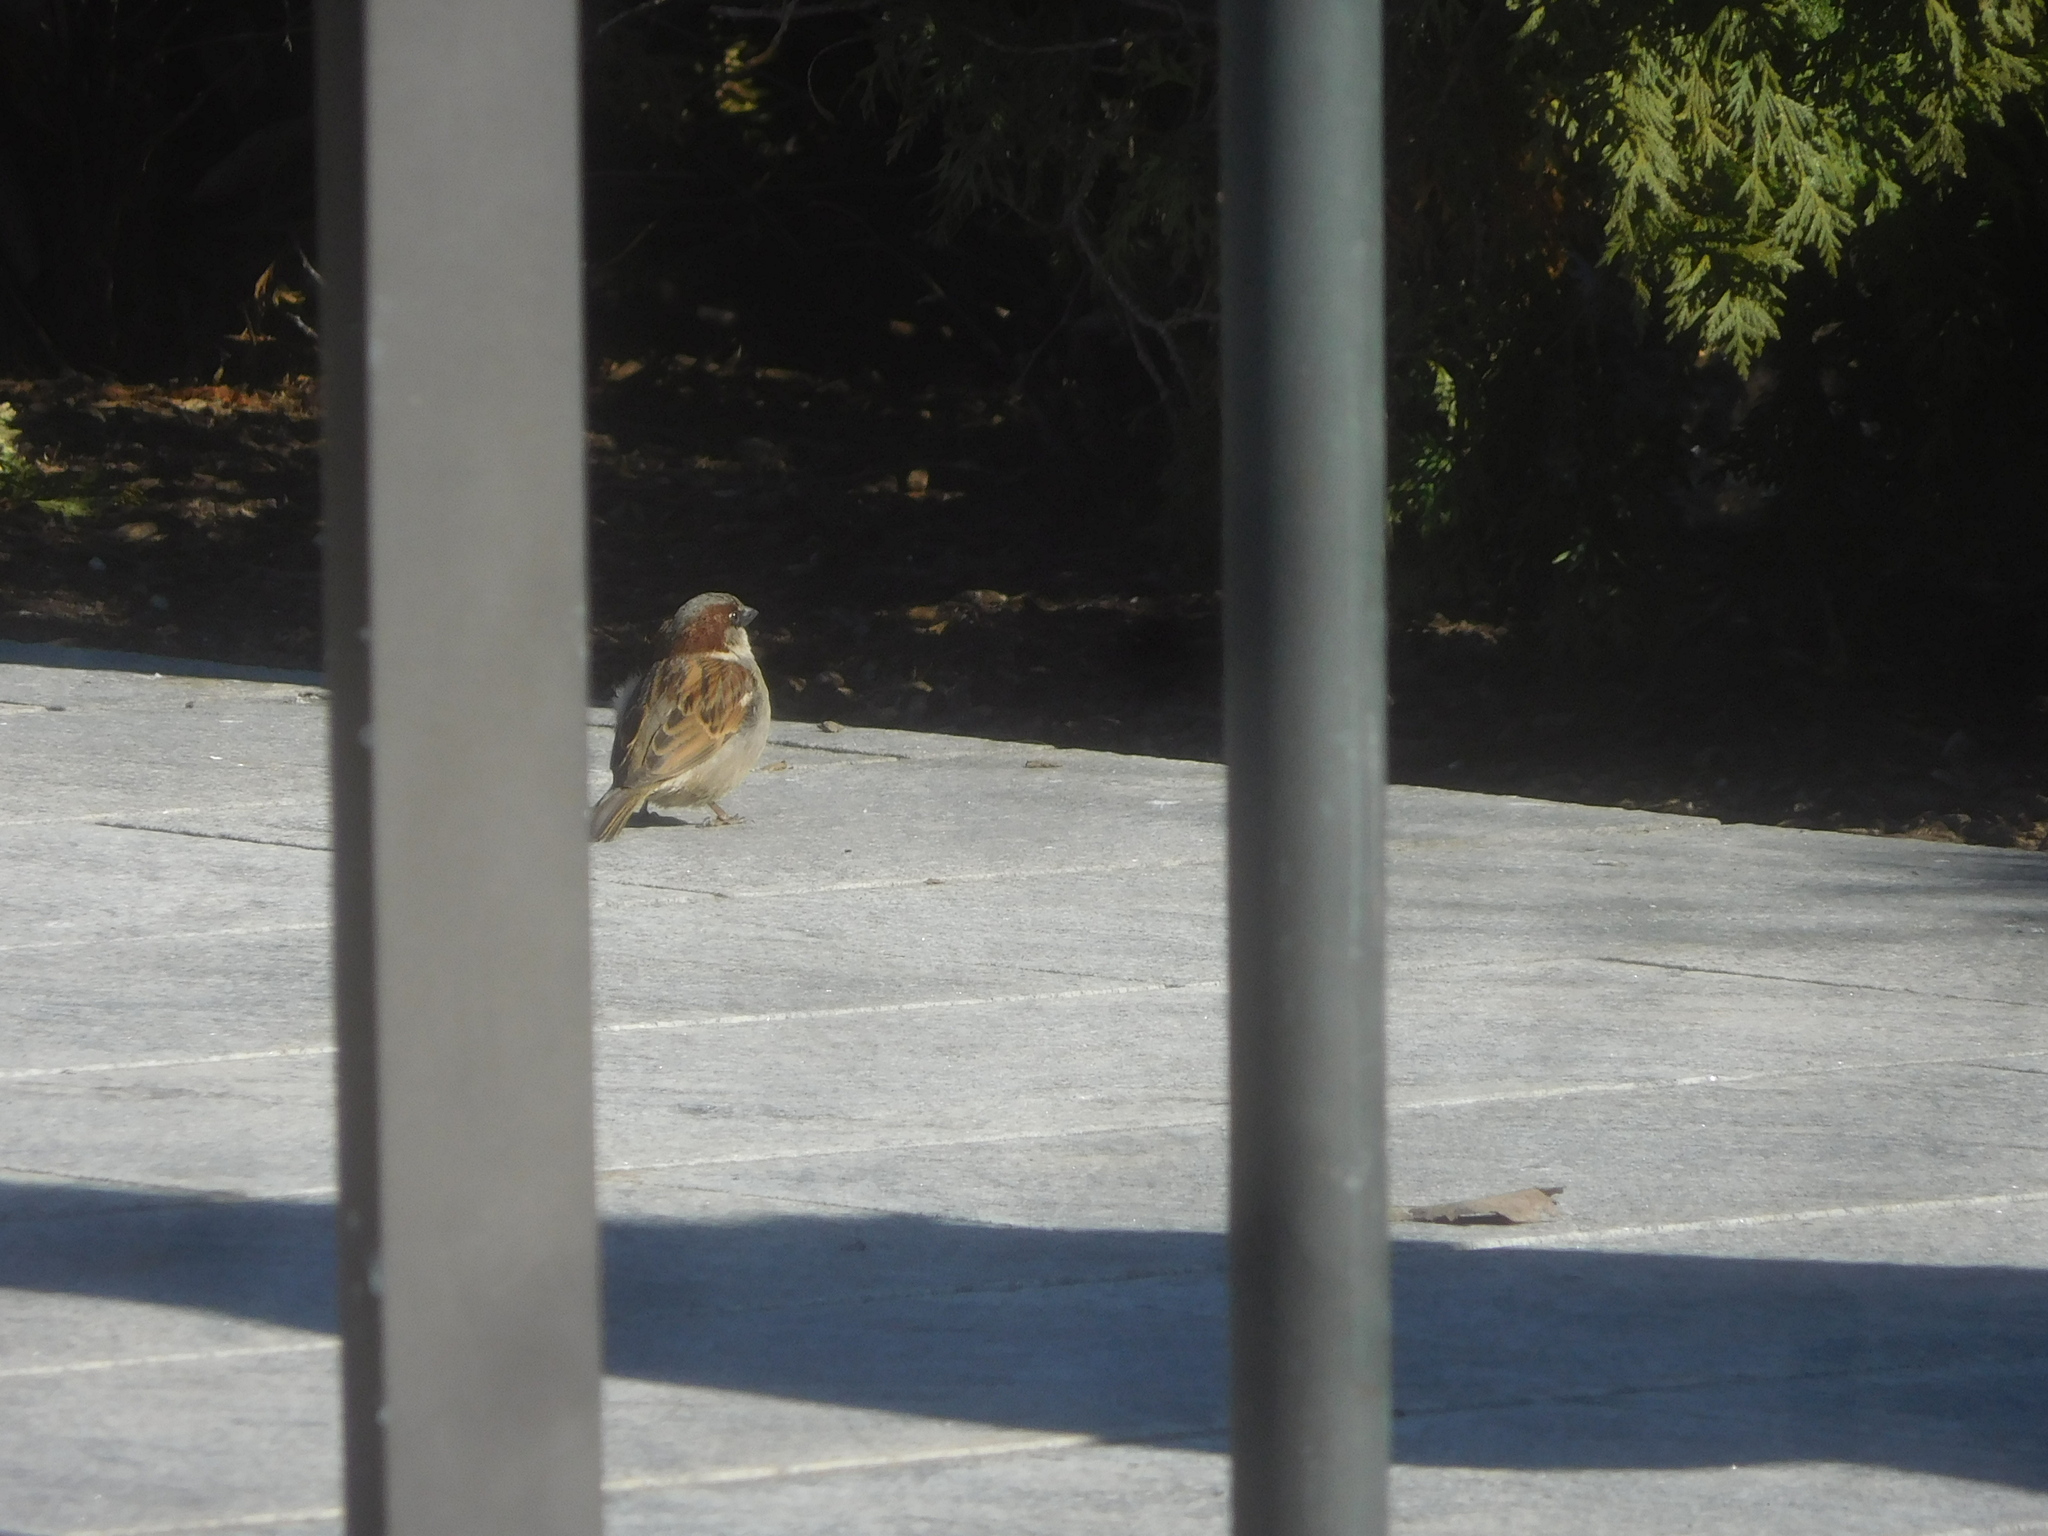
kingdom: Animalia
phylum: Chordata
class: Aves
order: Passeriformes
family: Passeridae
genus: Passer
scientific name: Passer domesticus
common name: House sparrow
